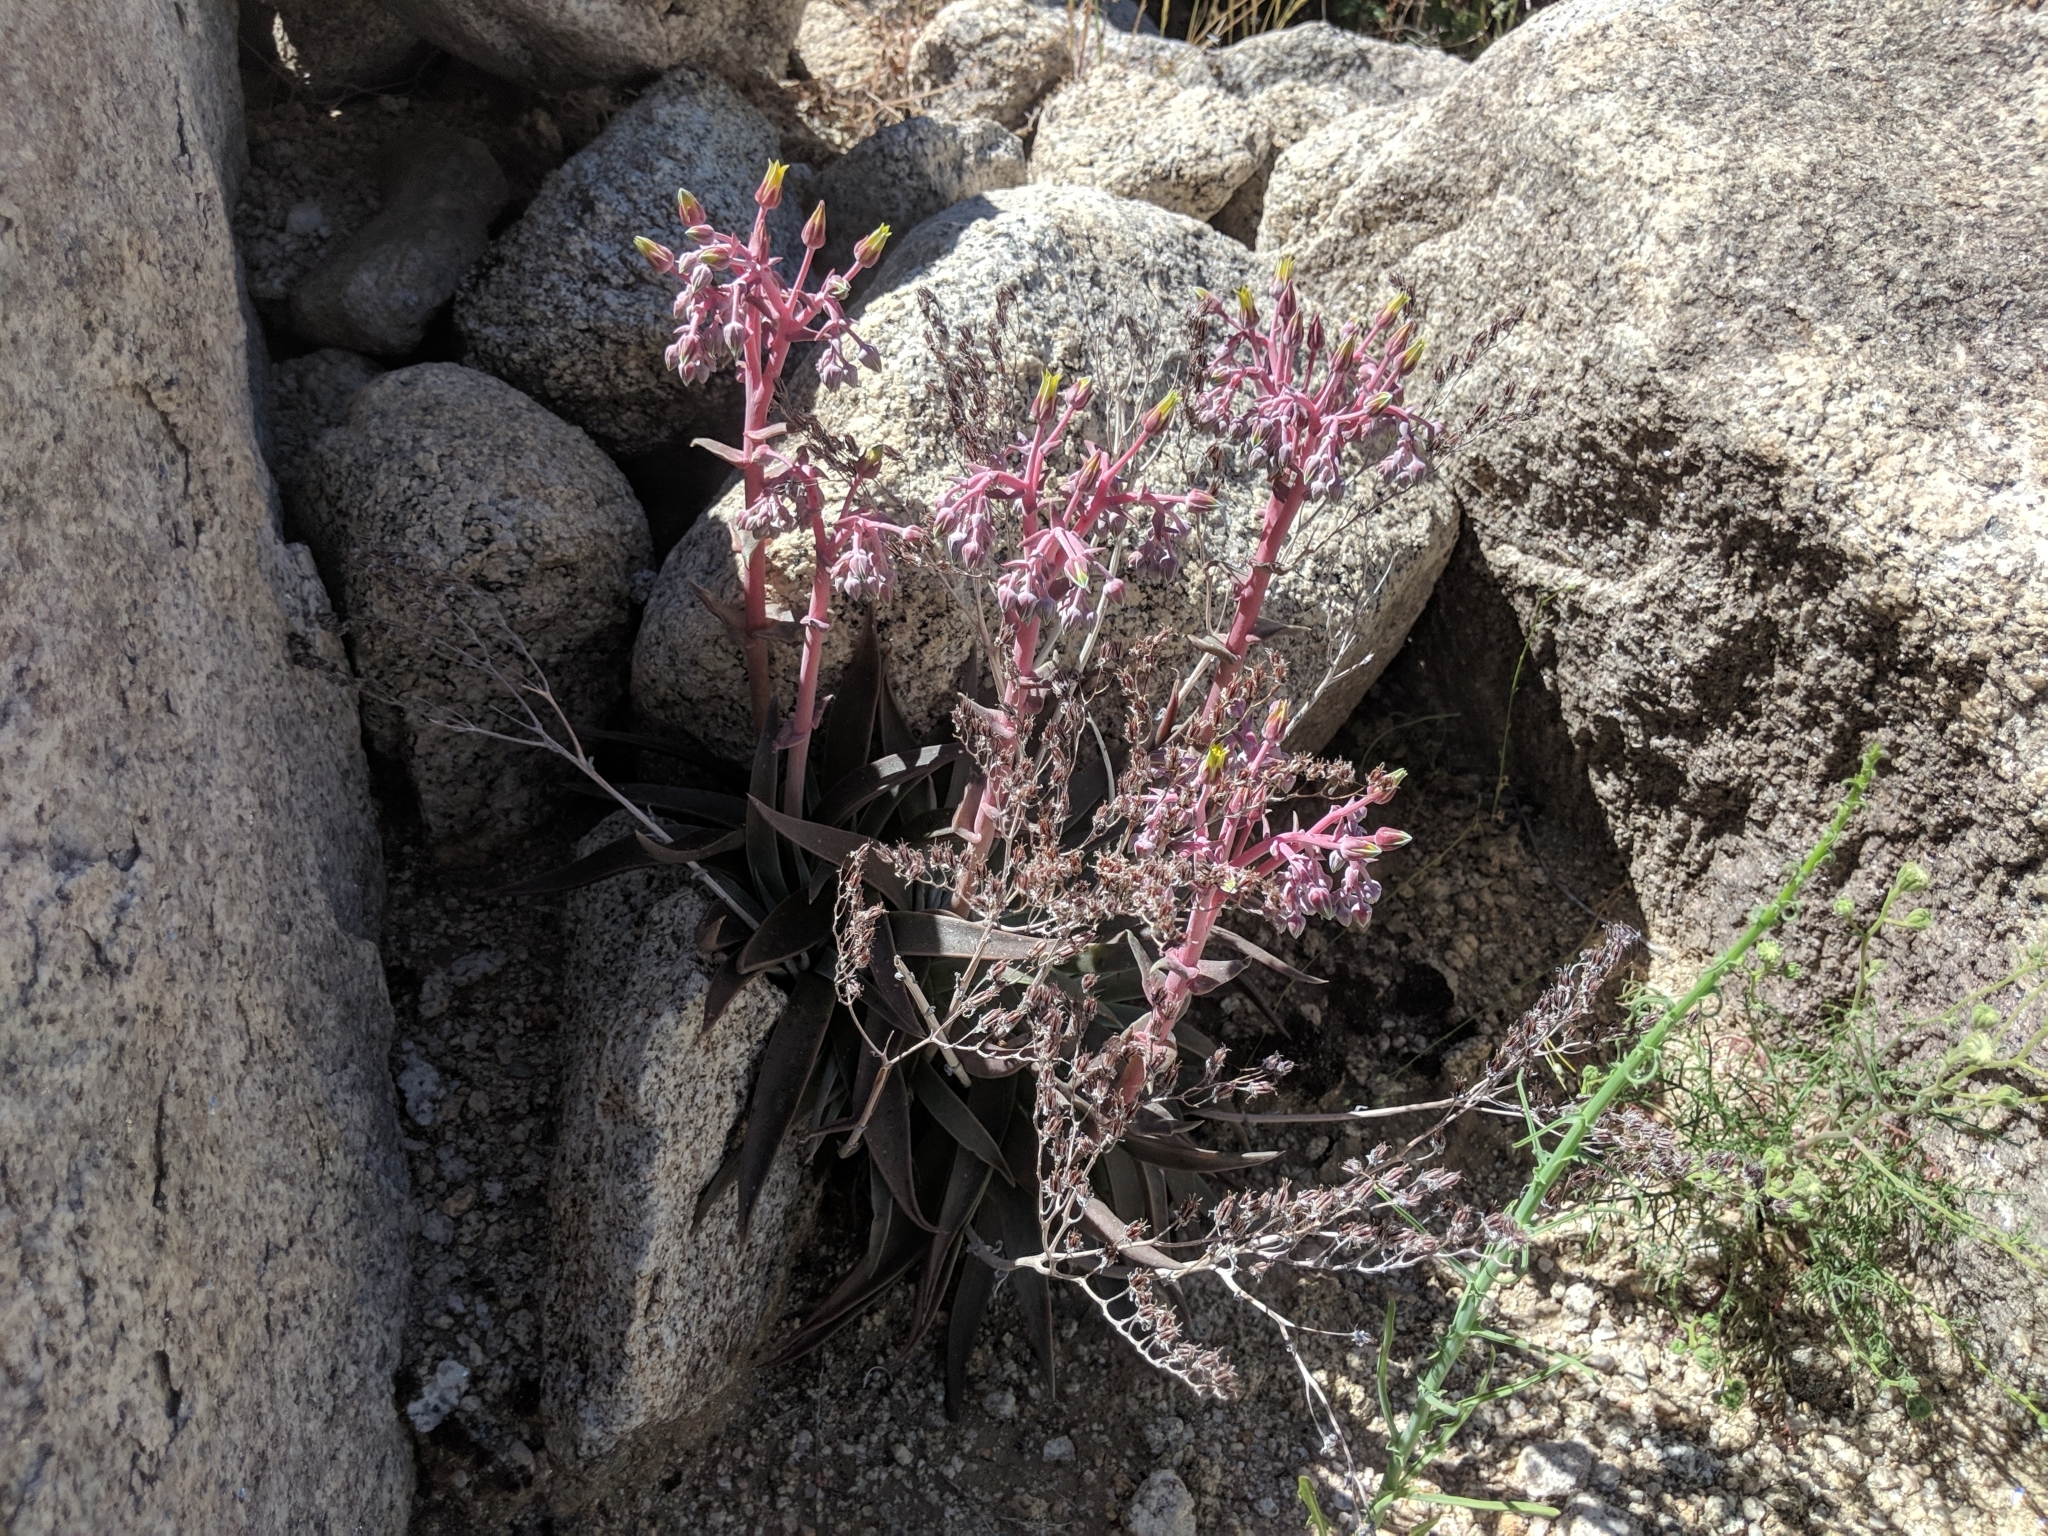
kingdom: Plantae
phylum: Tracheophyta
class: Magnoliopsida
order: Saxifragales
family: Crassulaceae
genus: Dudleya
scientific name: Dudleya saxosa
